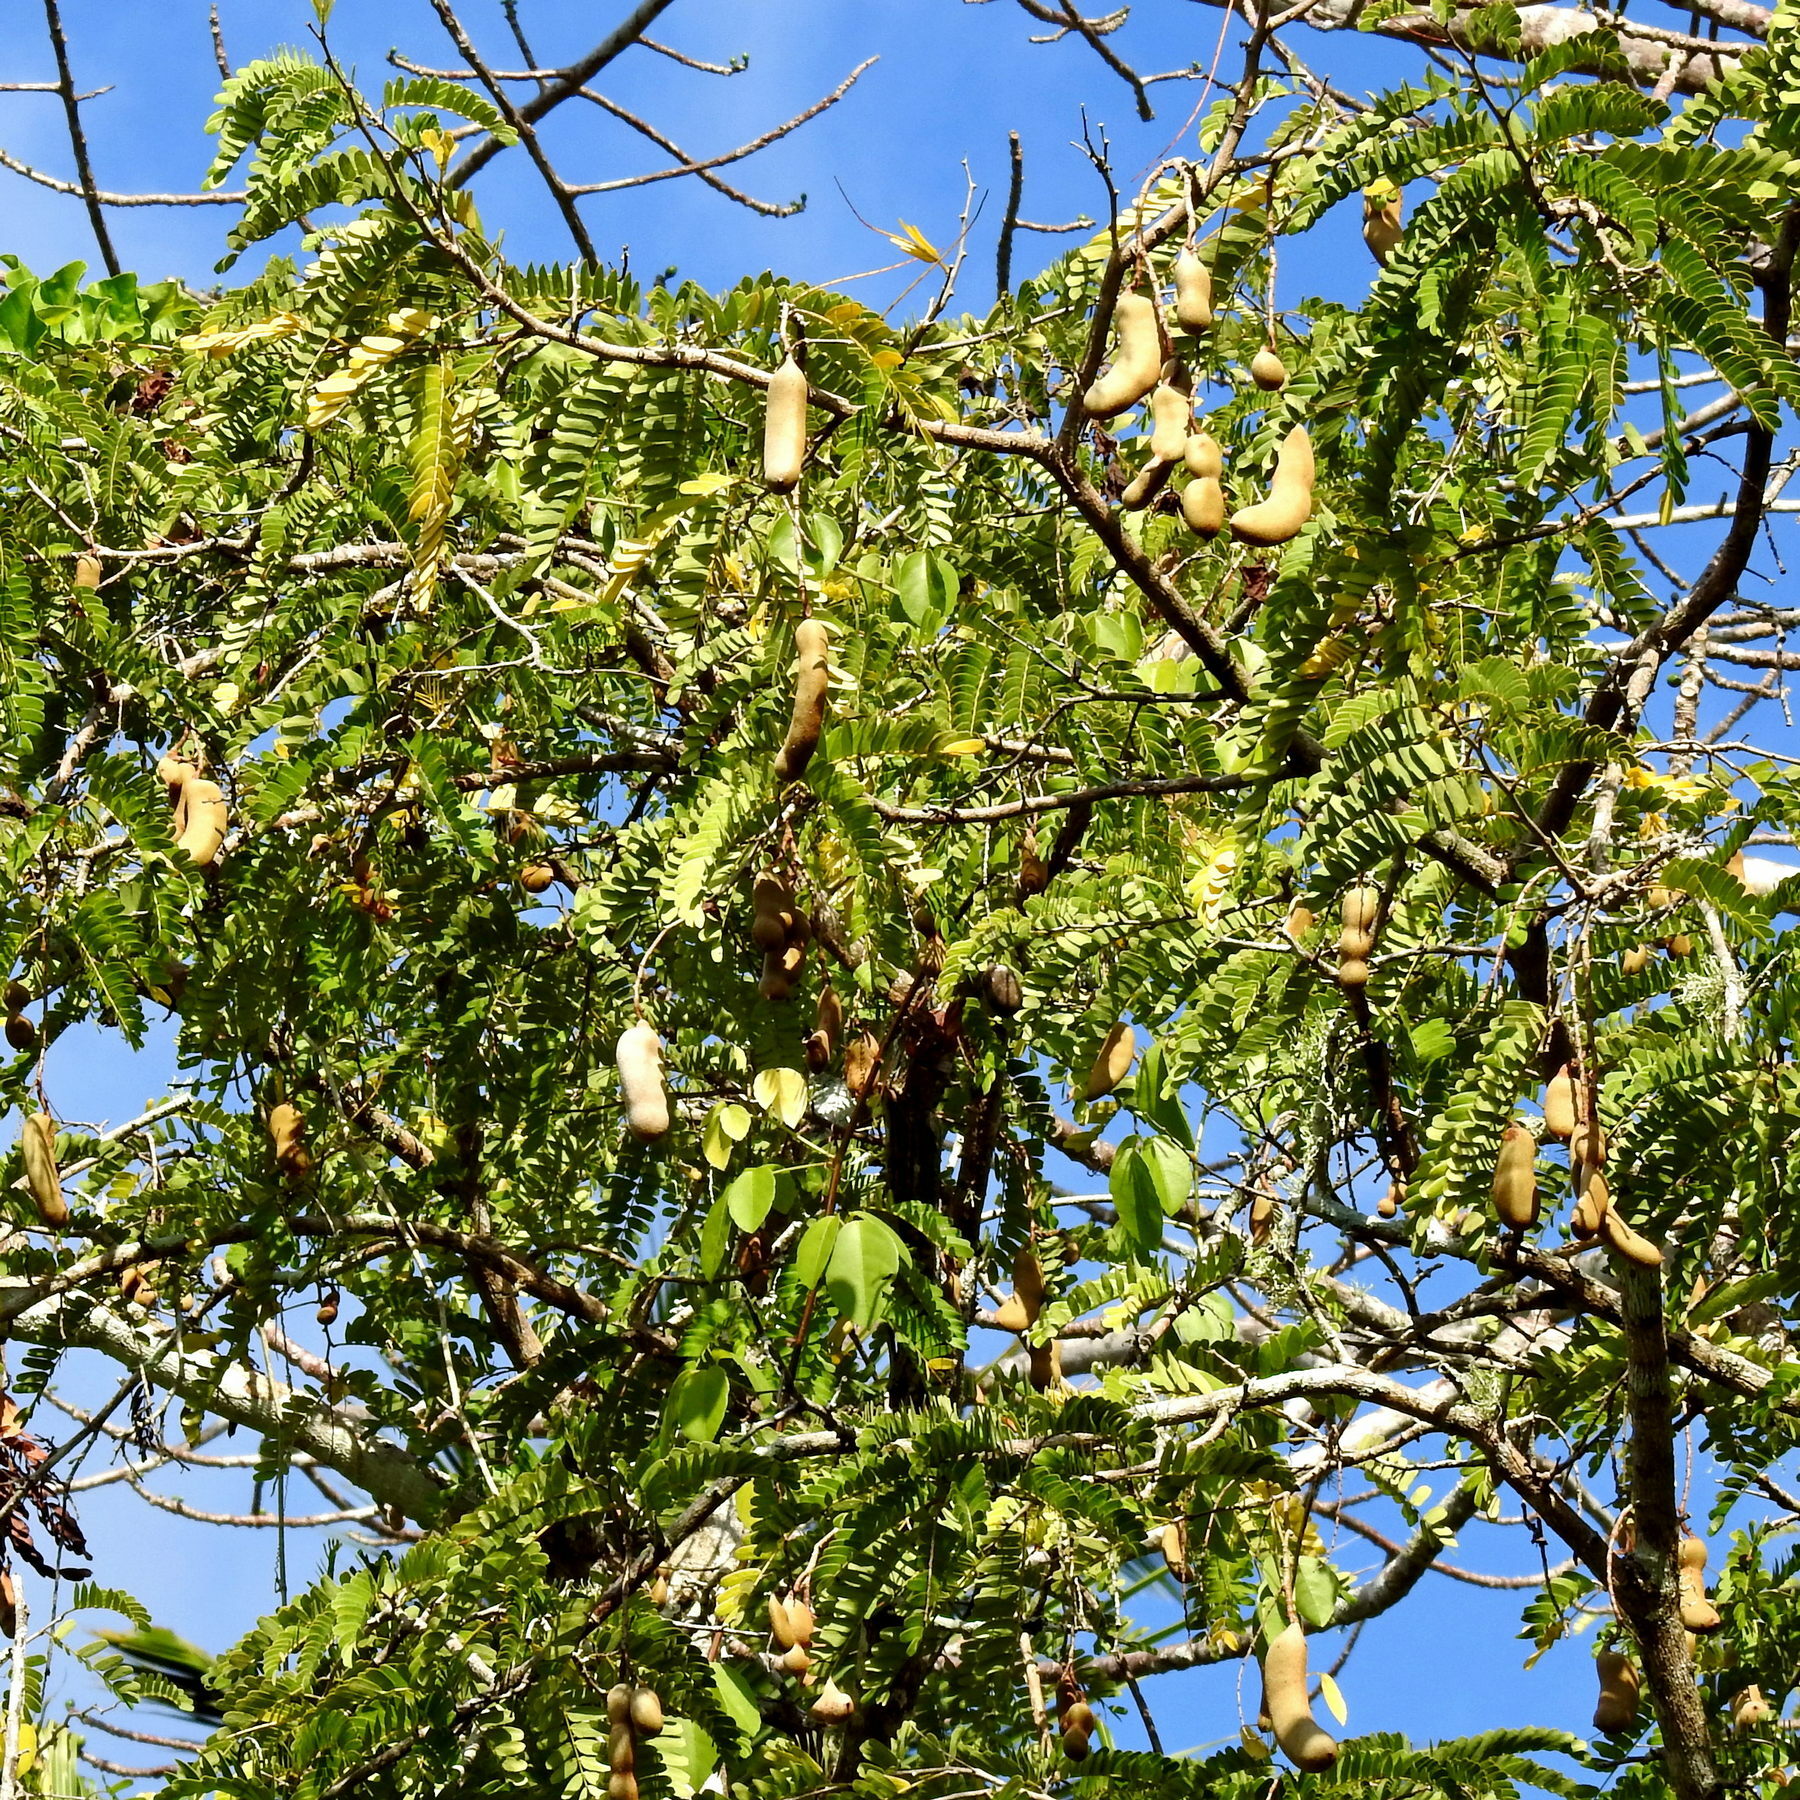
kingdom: Plantae
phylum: Tracheophyta
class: Magnoliopsida
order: Fabales
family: Fabaceae
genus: Tamarindus
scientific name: Tamarindus indica
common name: Tamarind
